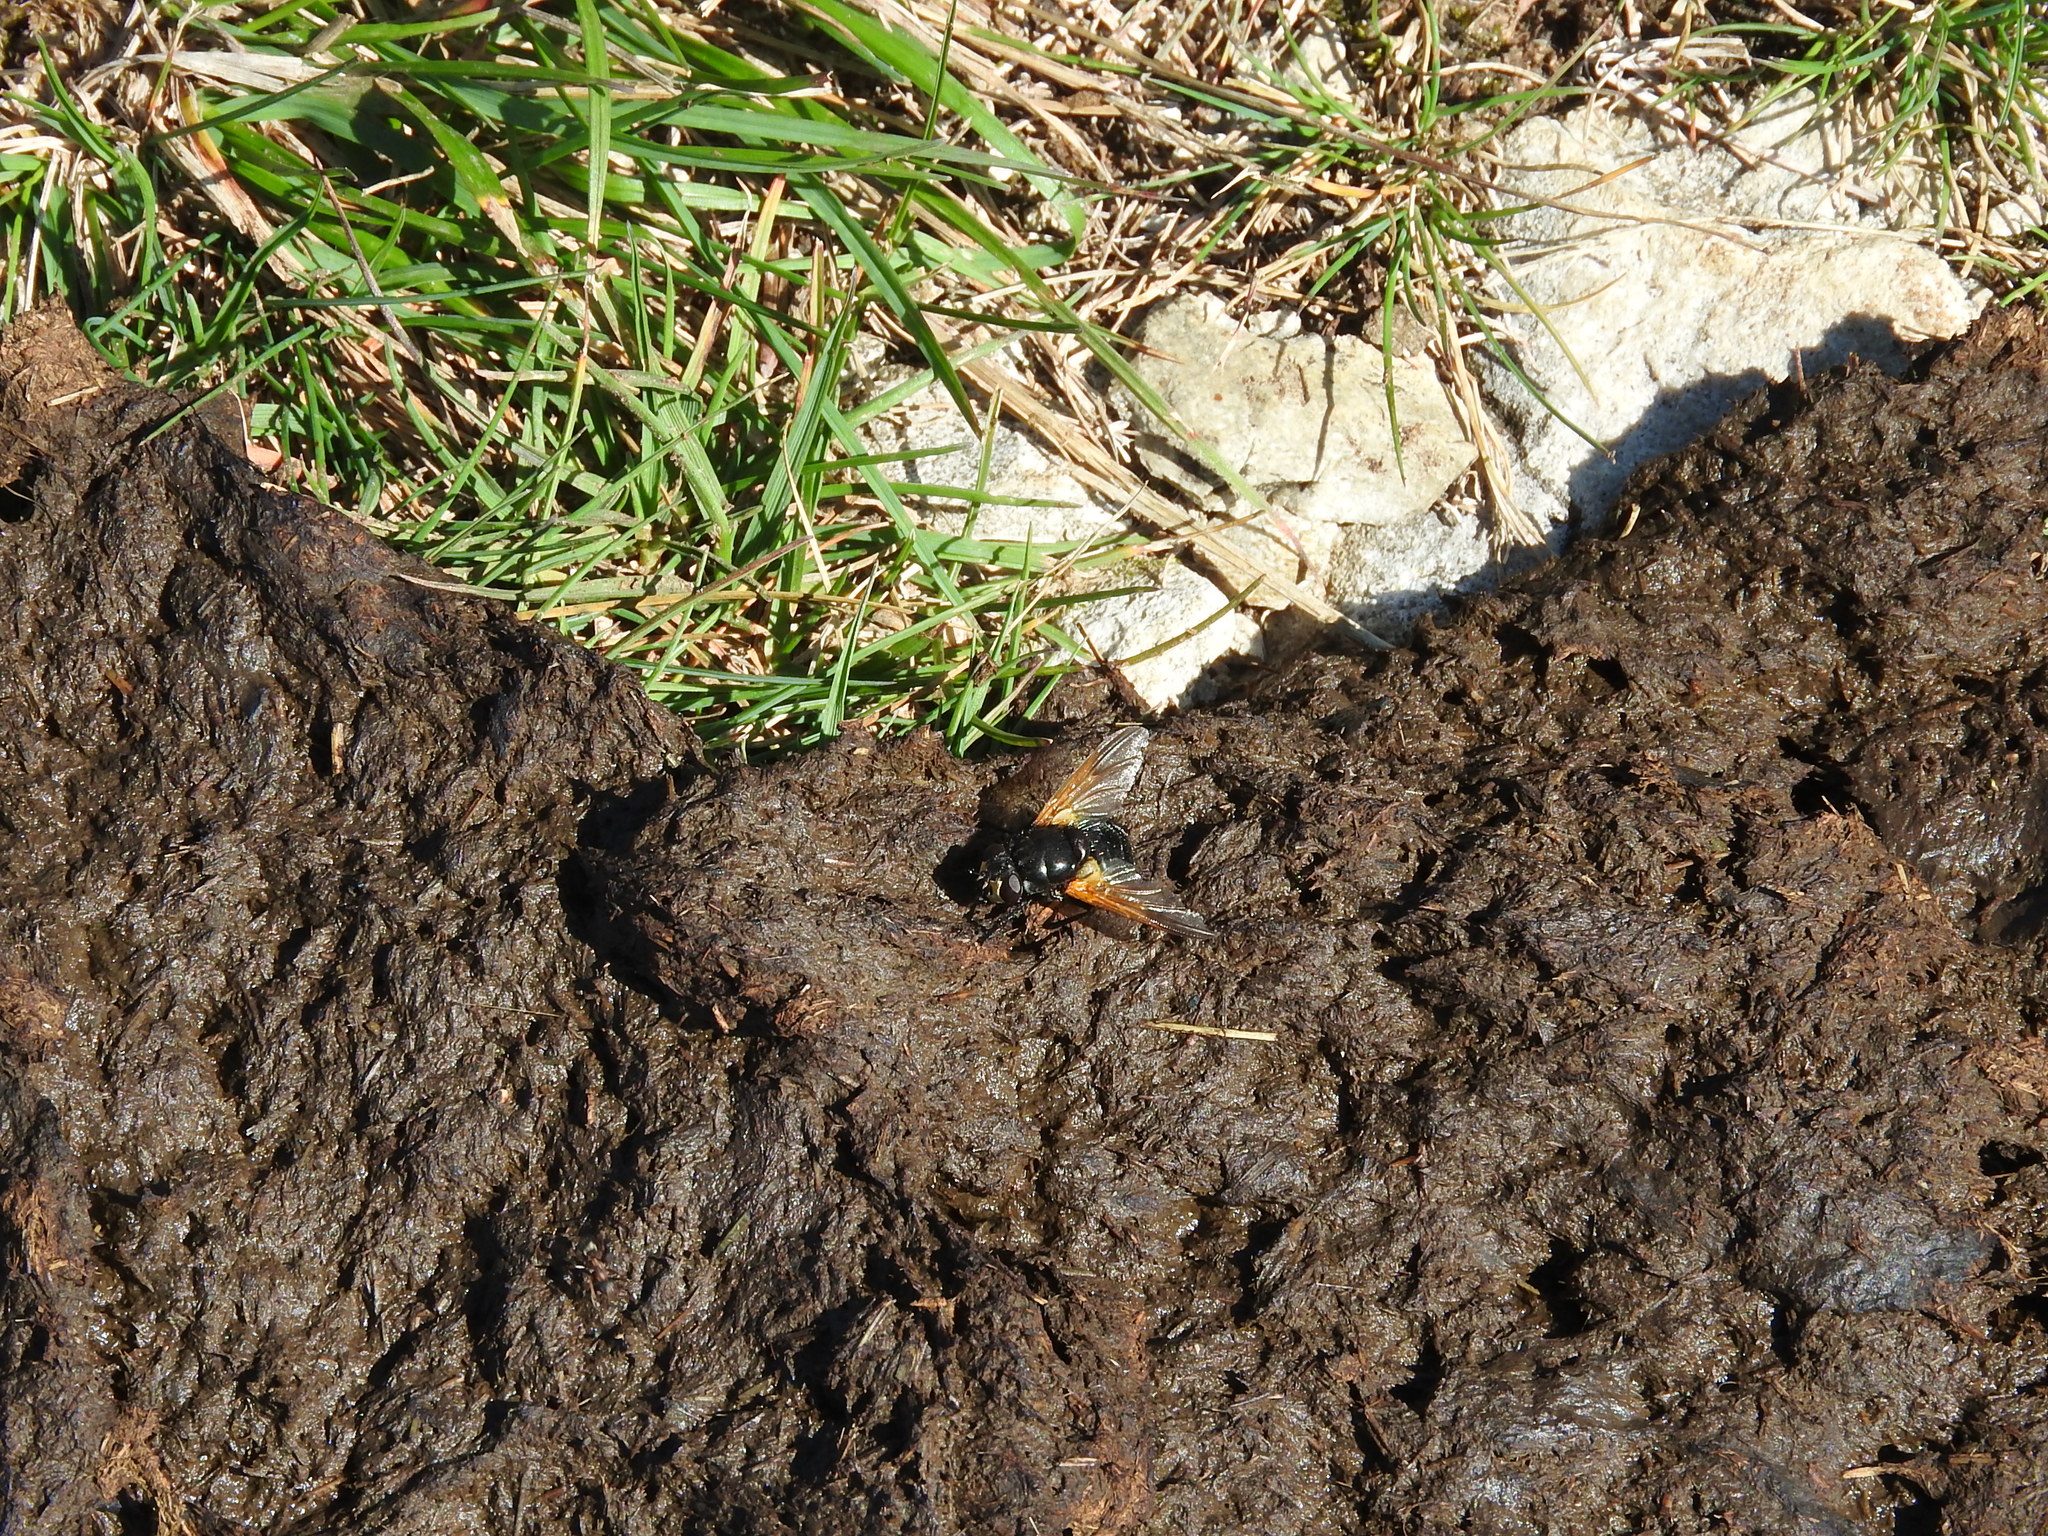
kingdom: Animalia
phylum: Arthropoda
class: Insecta
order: Diptera
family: Muscidae
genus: Mesembrina
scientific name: Mesembrina meridiana
